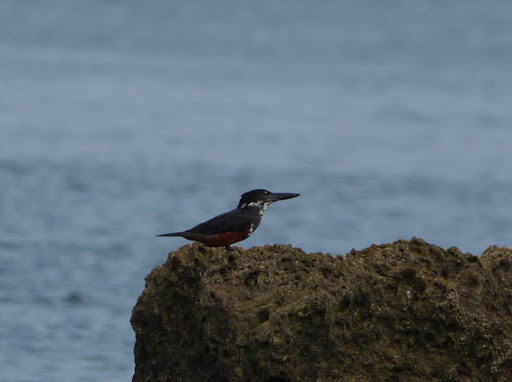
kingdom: Animalia
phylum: Chordata
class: Aves
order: Coraciiformes
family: Alcedinidae
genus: Megaceryle
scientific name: Megaceryle maxima
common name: Giant kingfisher
